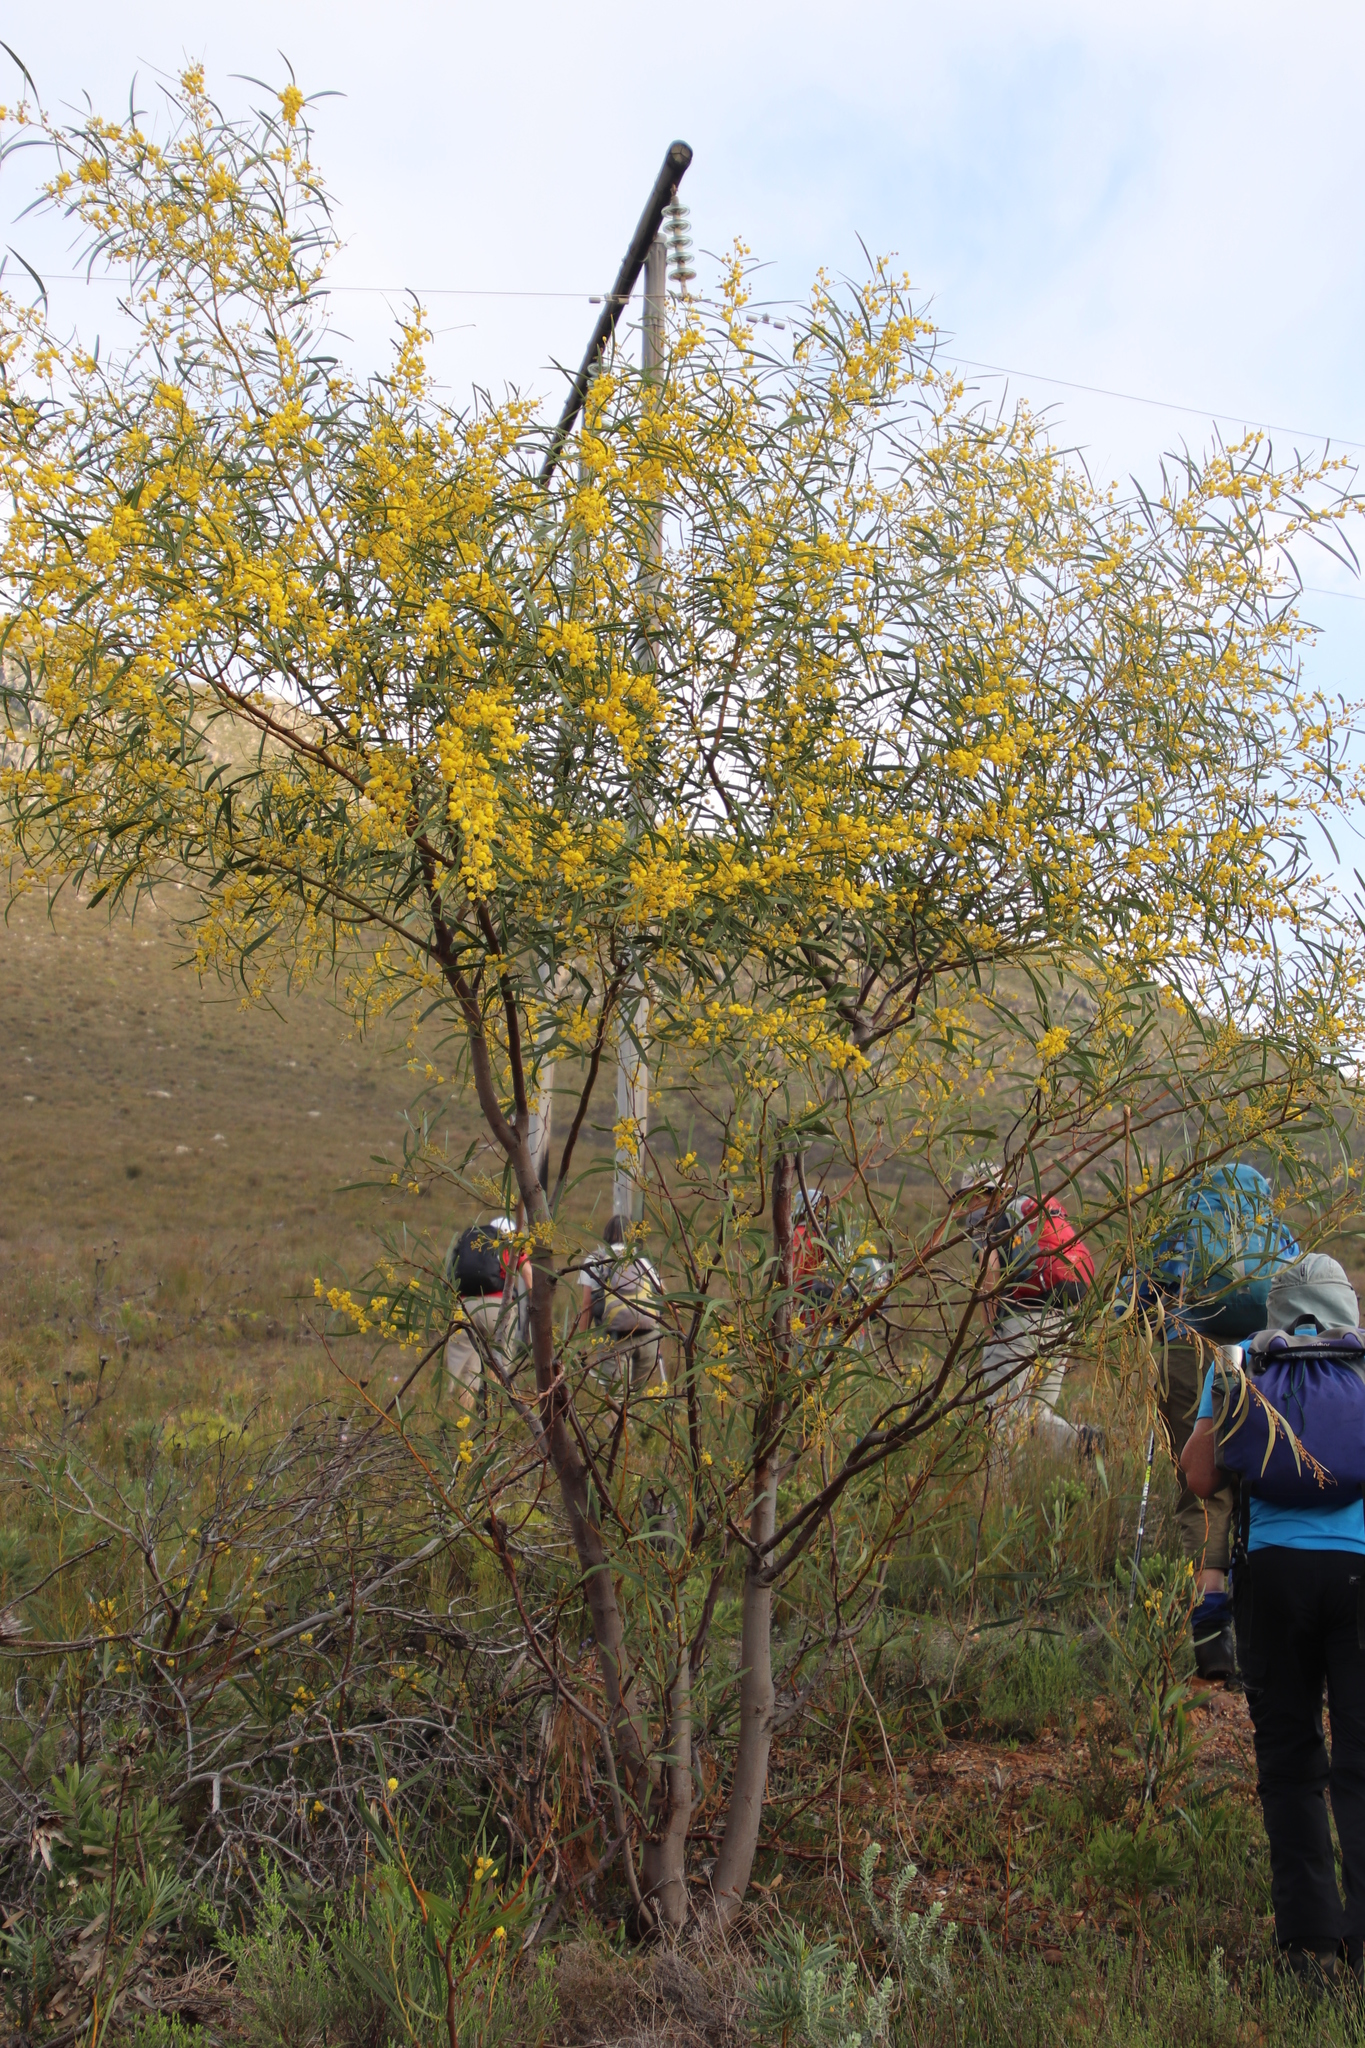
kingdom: Plantae
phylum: Tracheophyta
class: Magnoliopsida
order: Fabales
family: Fabaceae
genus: Acacia
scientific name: Acacia saligna
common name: Orange wattle
